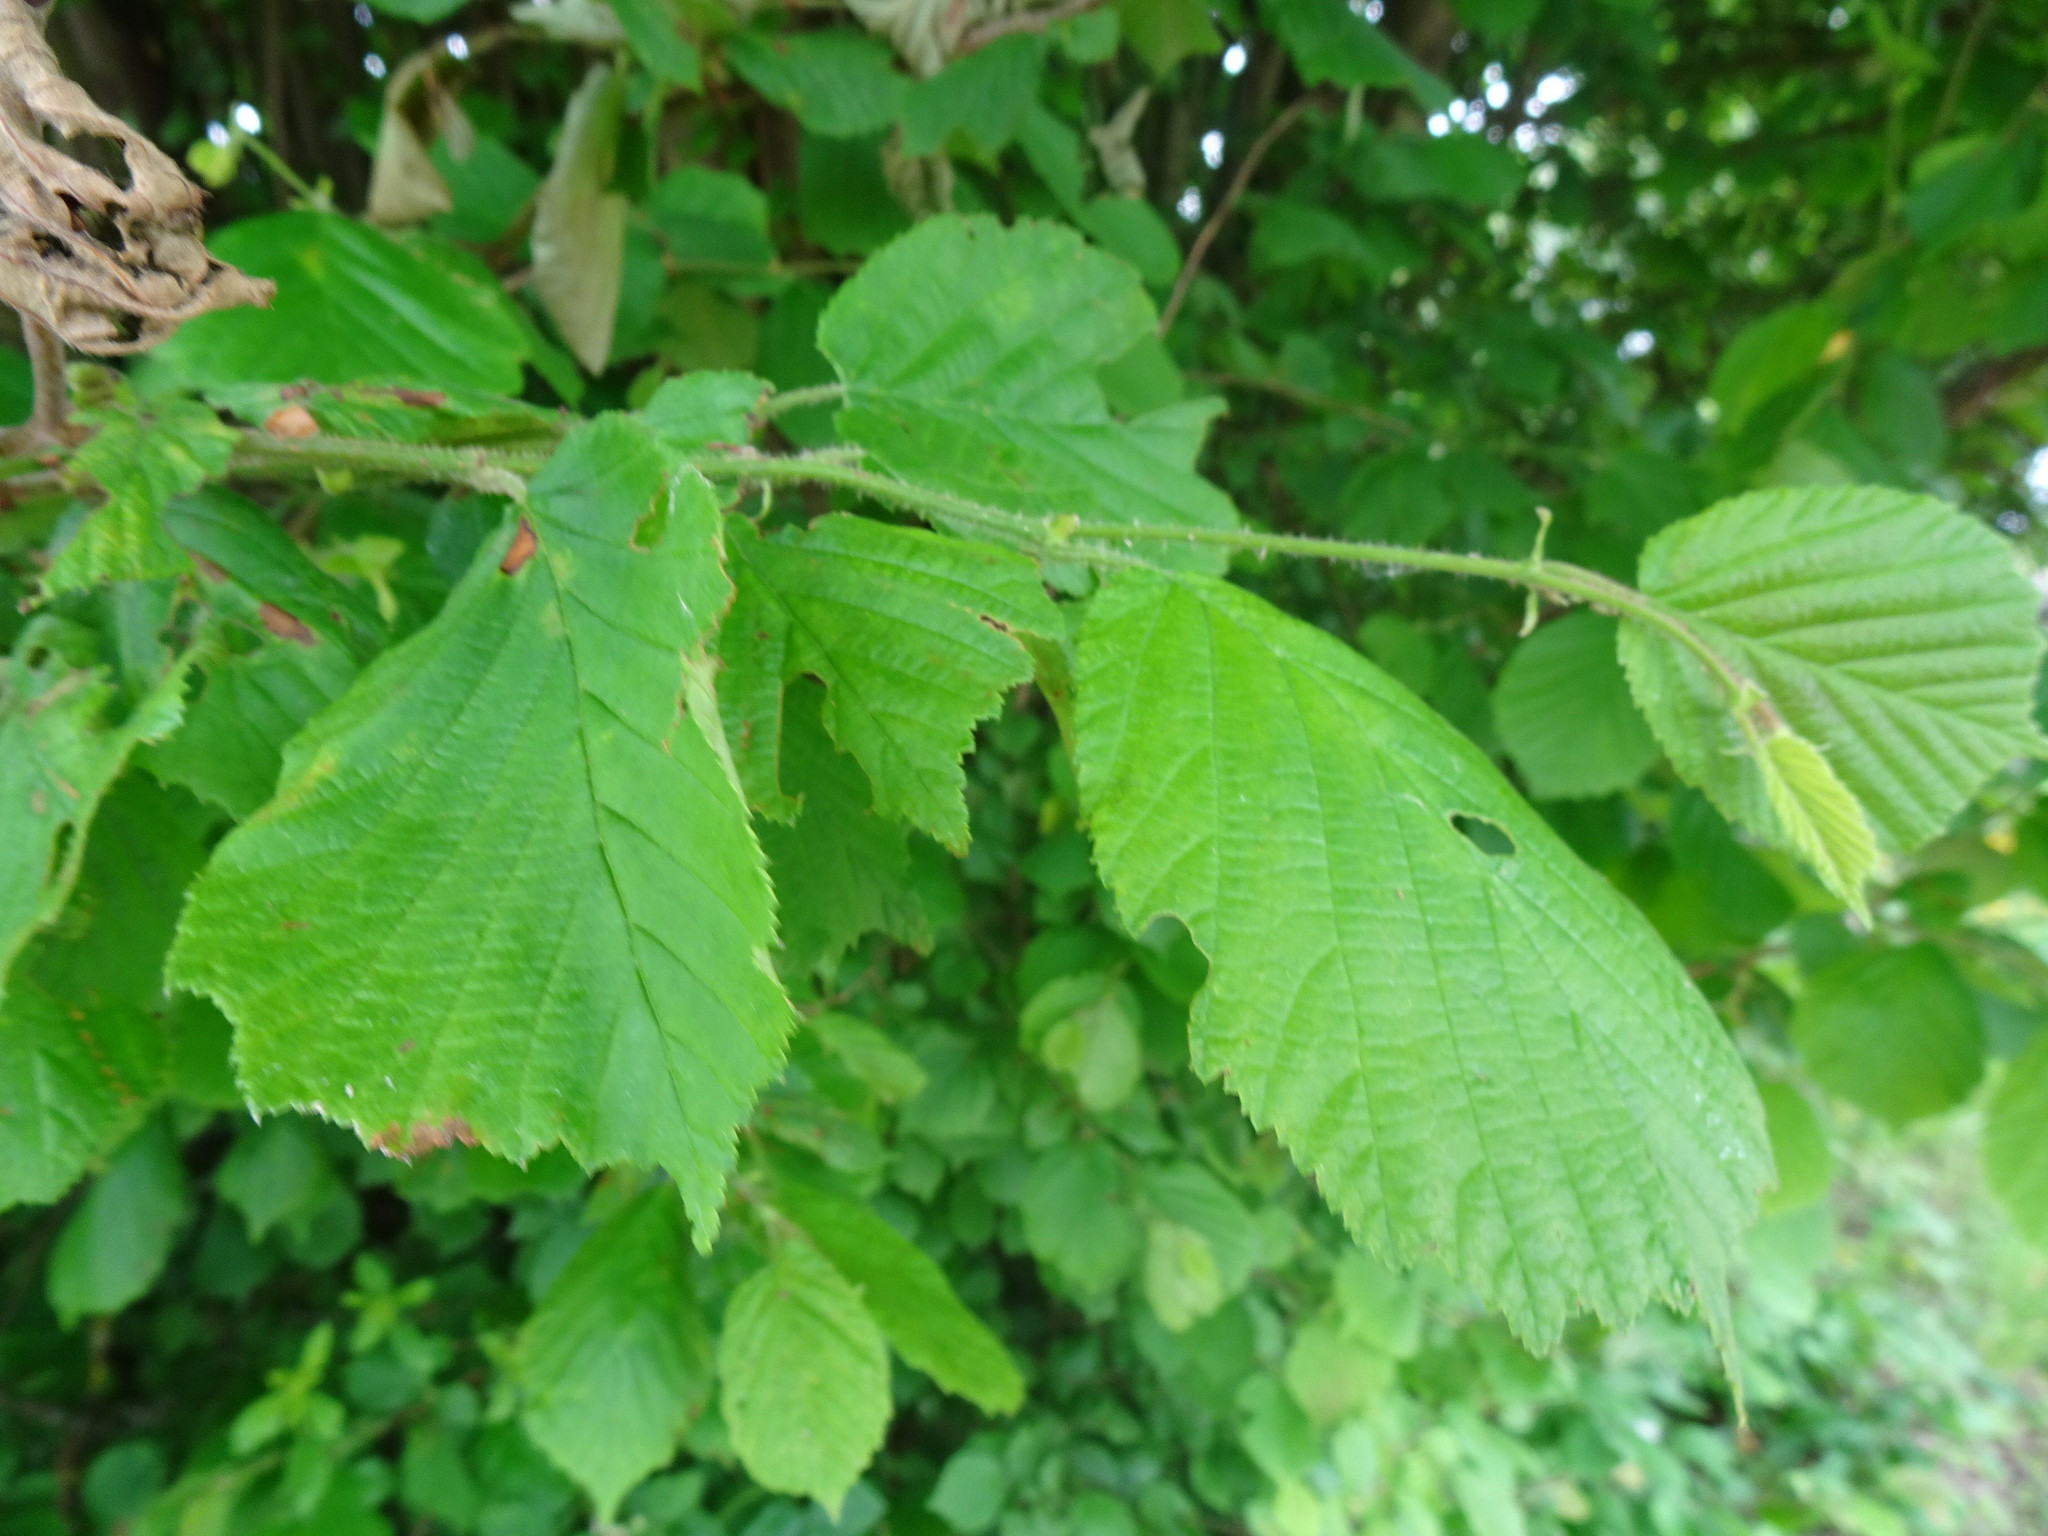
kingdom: Plantae
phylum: Tracheophyta
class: Magnoliopsida
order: Fagales
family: Betulaceae
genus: Corylus
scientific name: Corylus avellana
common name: European hazel
